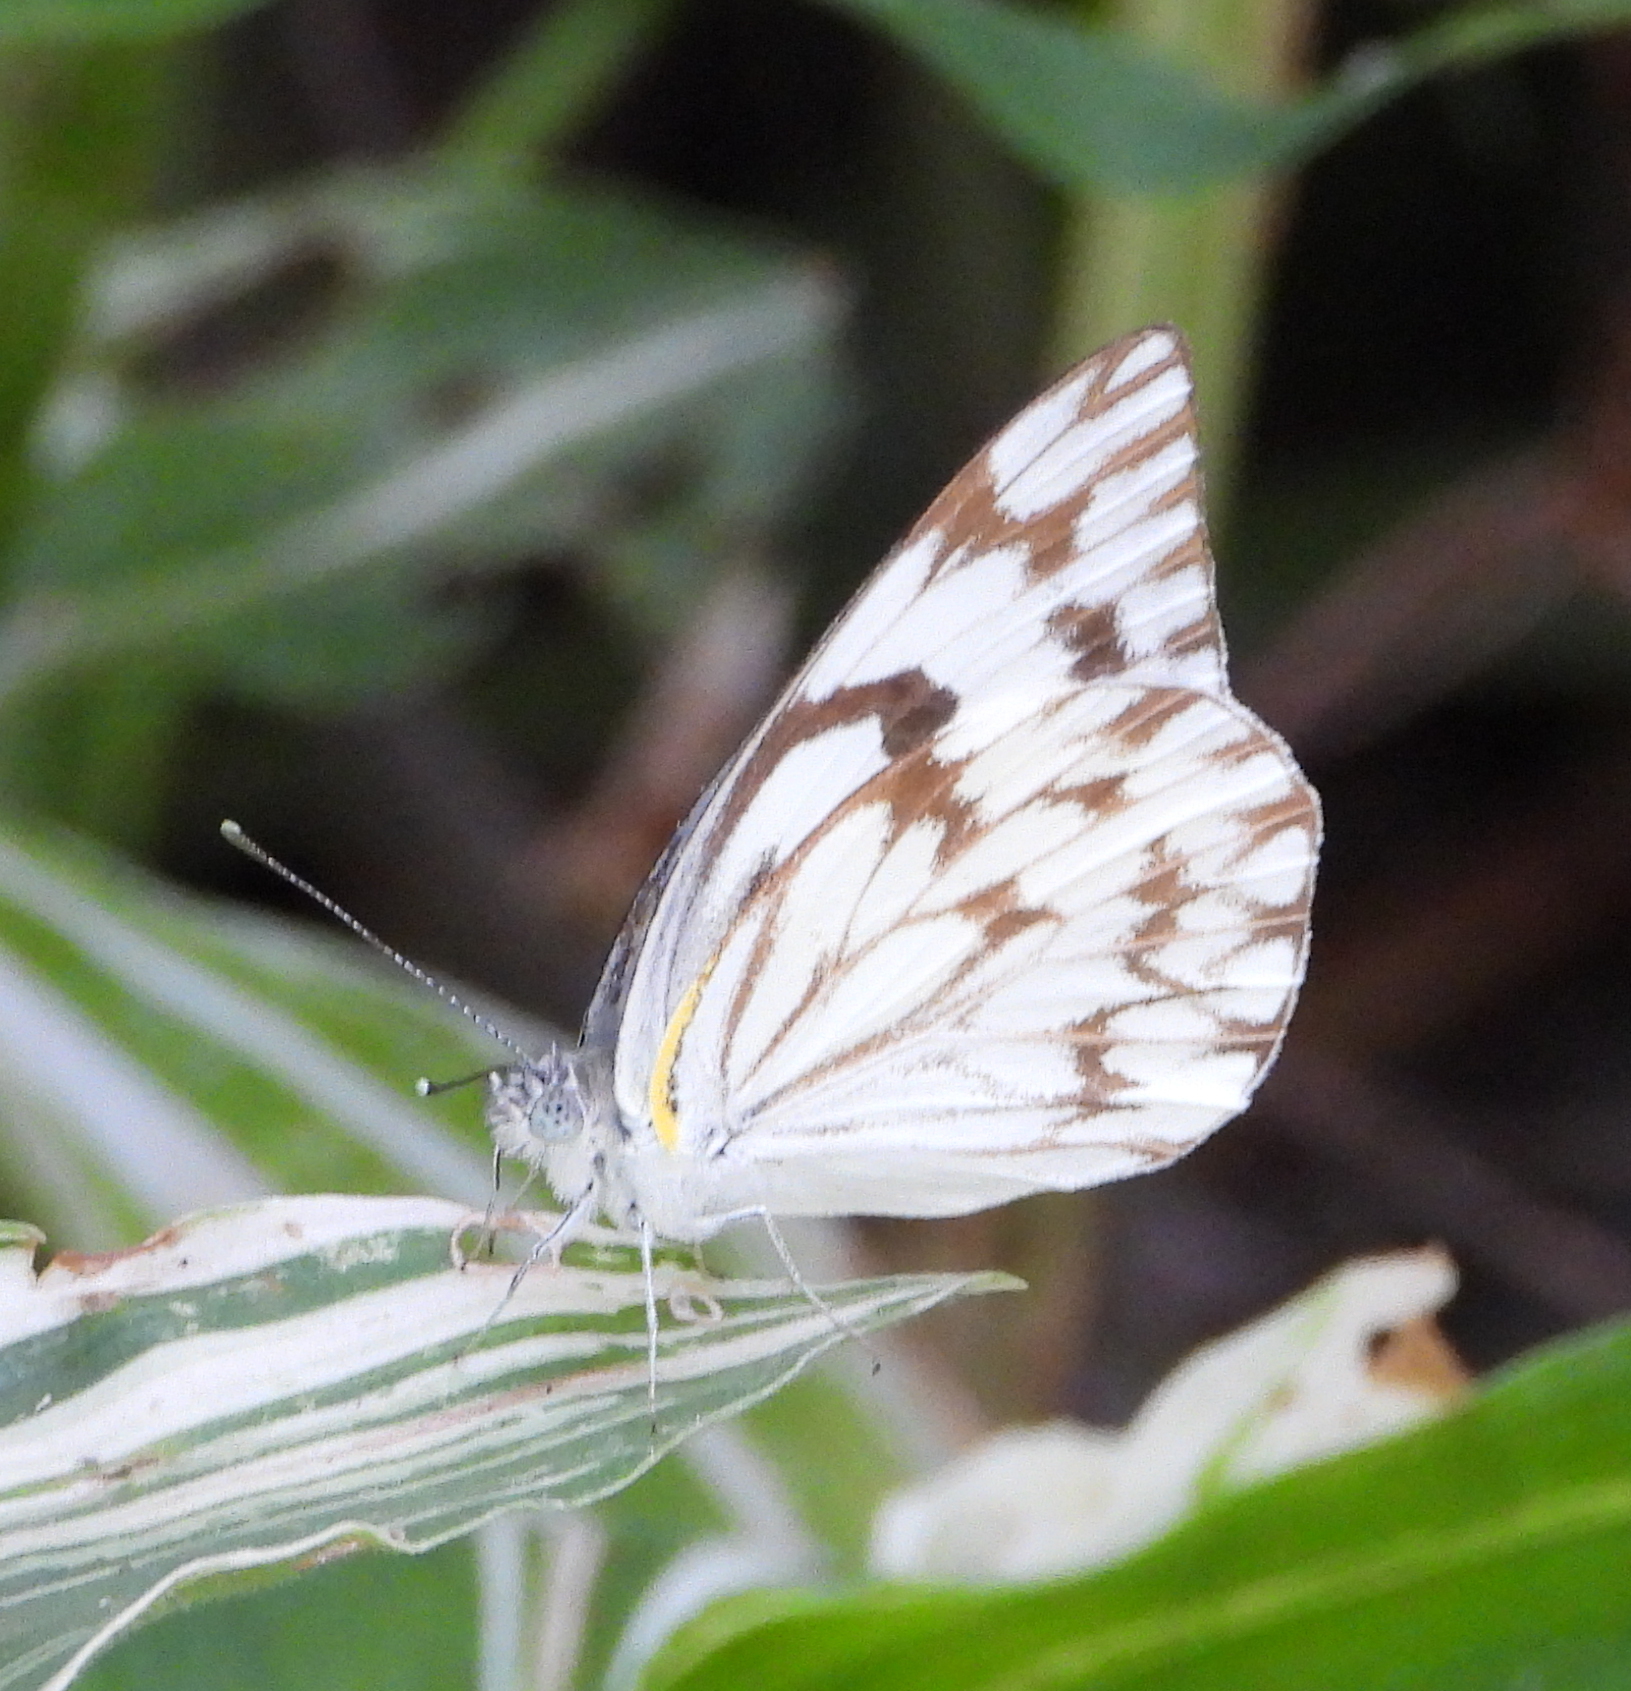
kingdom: Animalia
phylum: Arthropoda
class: Insecta
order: Lepidoptera
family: Pieridae
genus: Belenois
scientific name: Belenois gidica
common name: Pointed caper white
